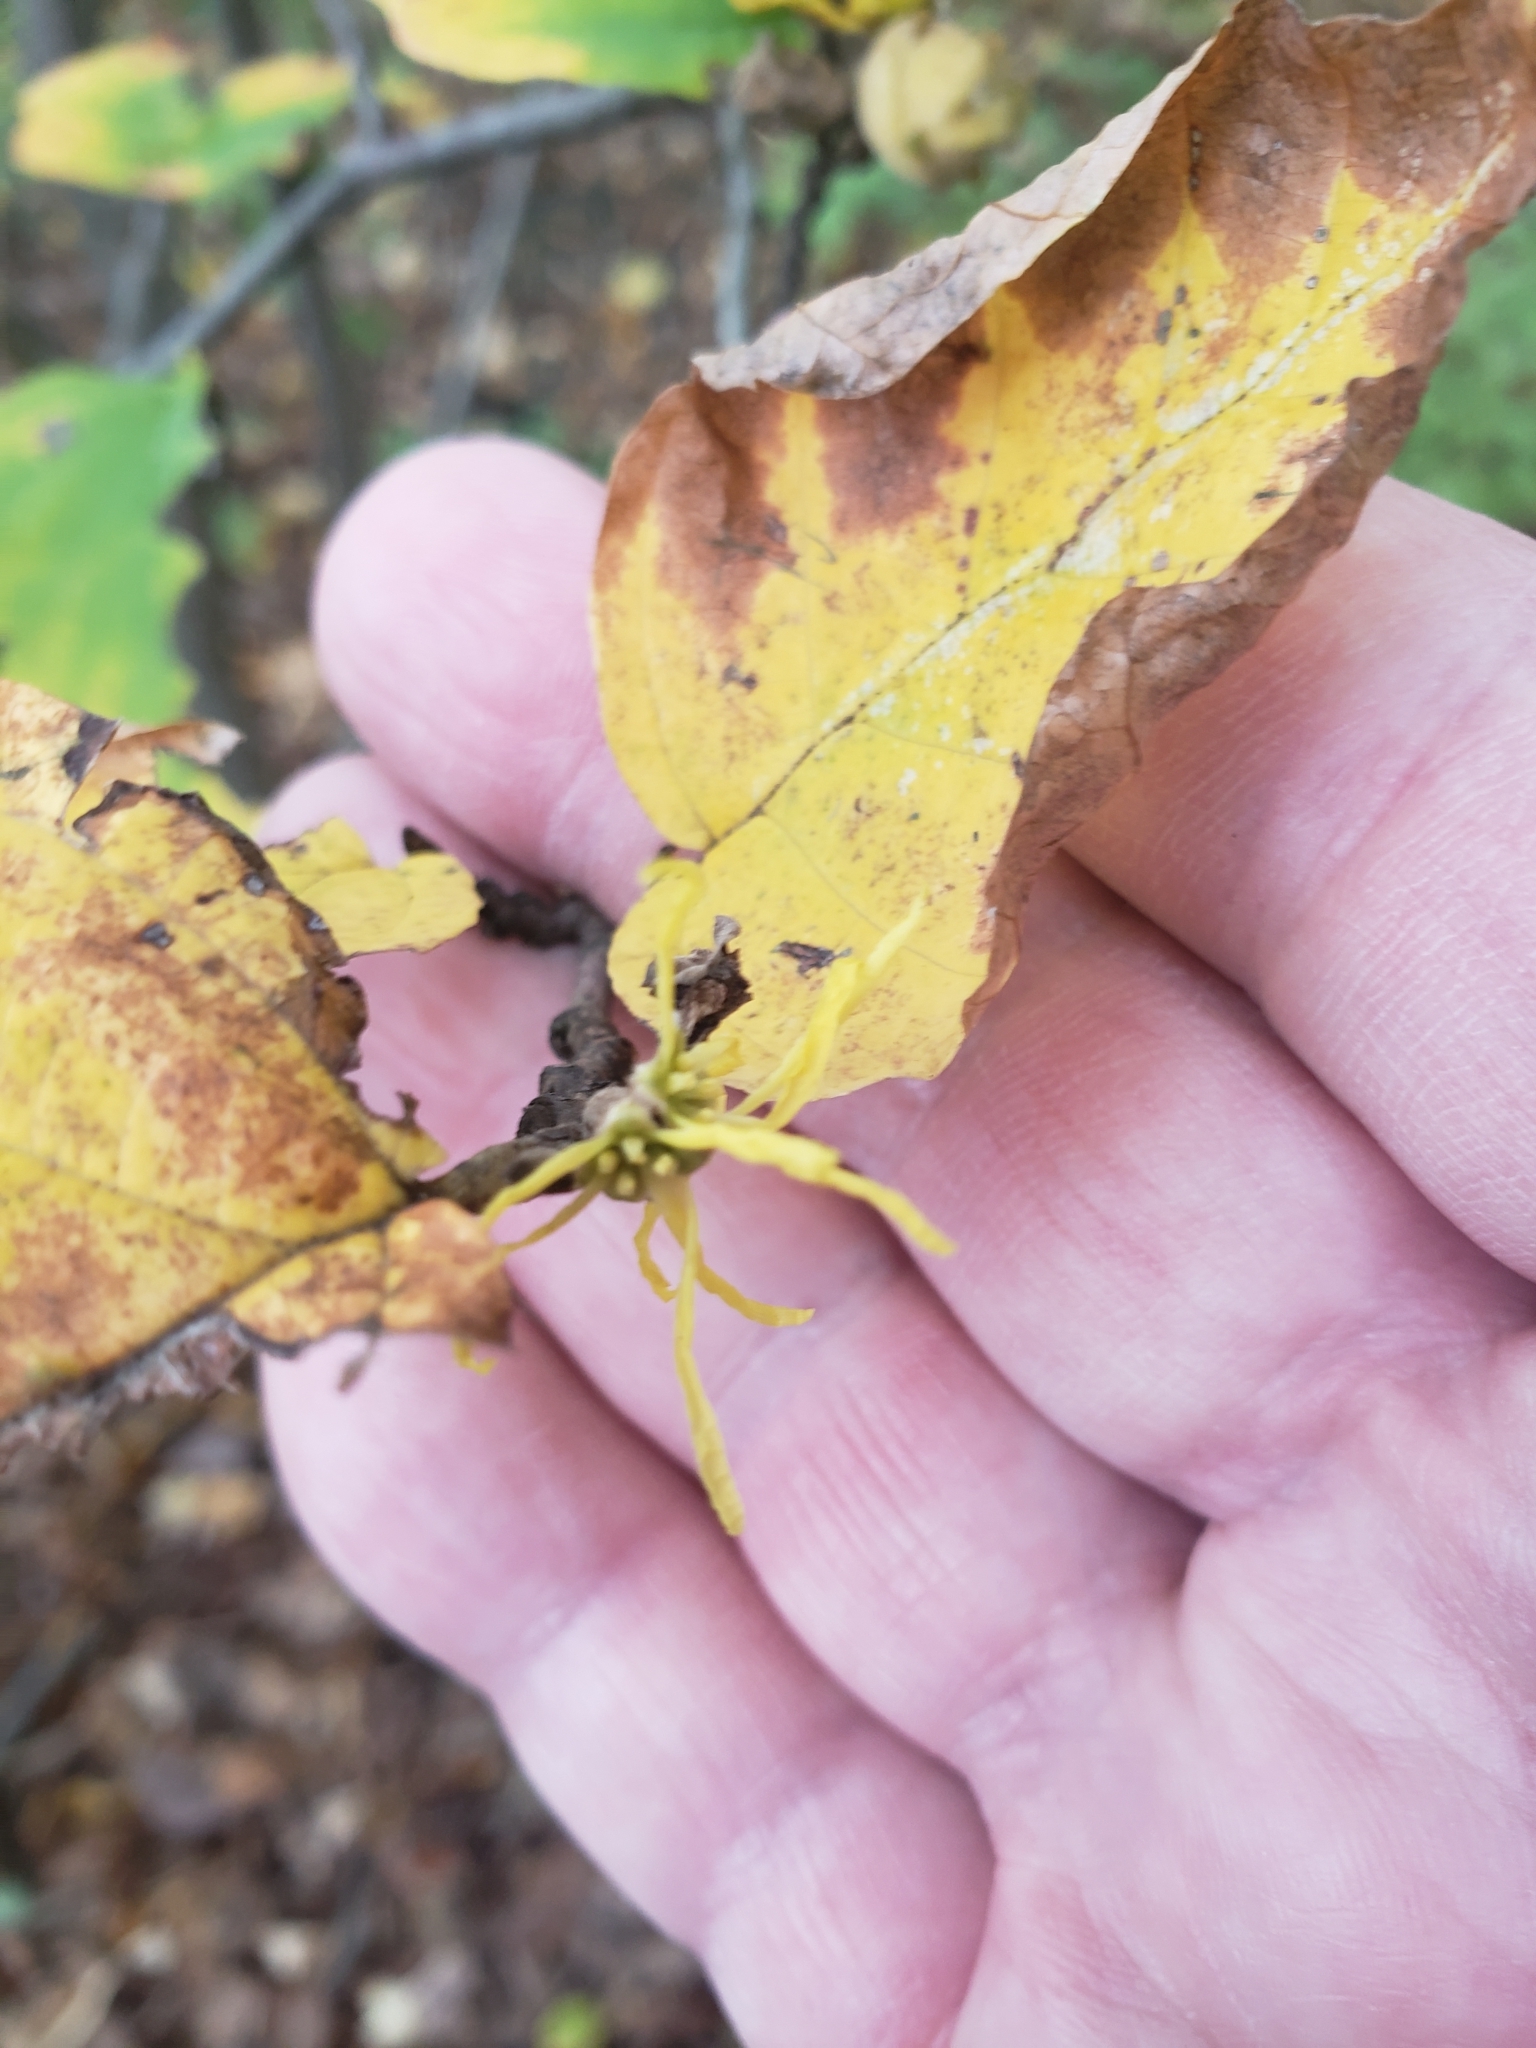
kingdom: Plantae
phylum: Tracheophyta
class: Magnoliopsida
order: Saxifragales
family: Hamamelidaceae
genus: Hamamelis
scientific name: Hamamelis virginiana
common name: Witch-hazel
